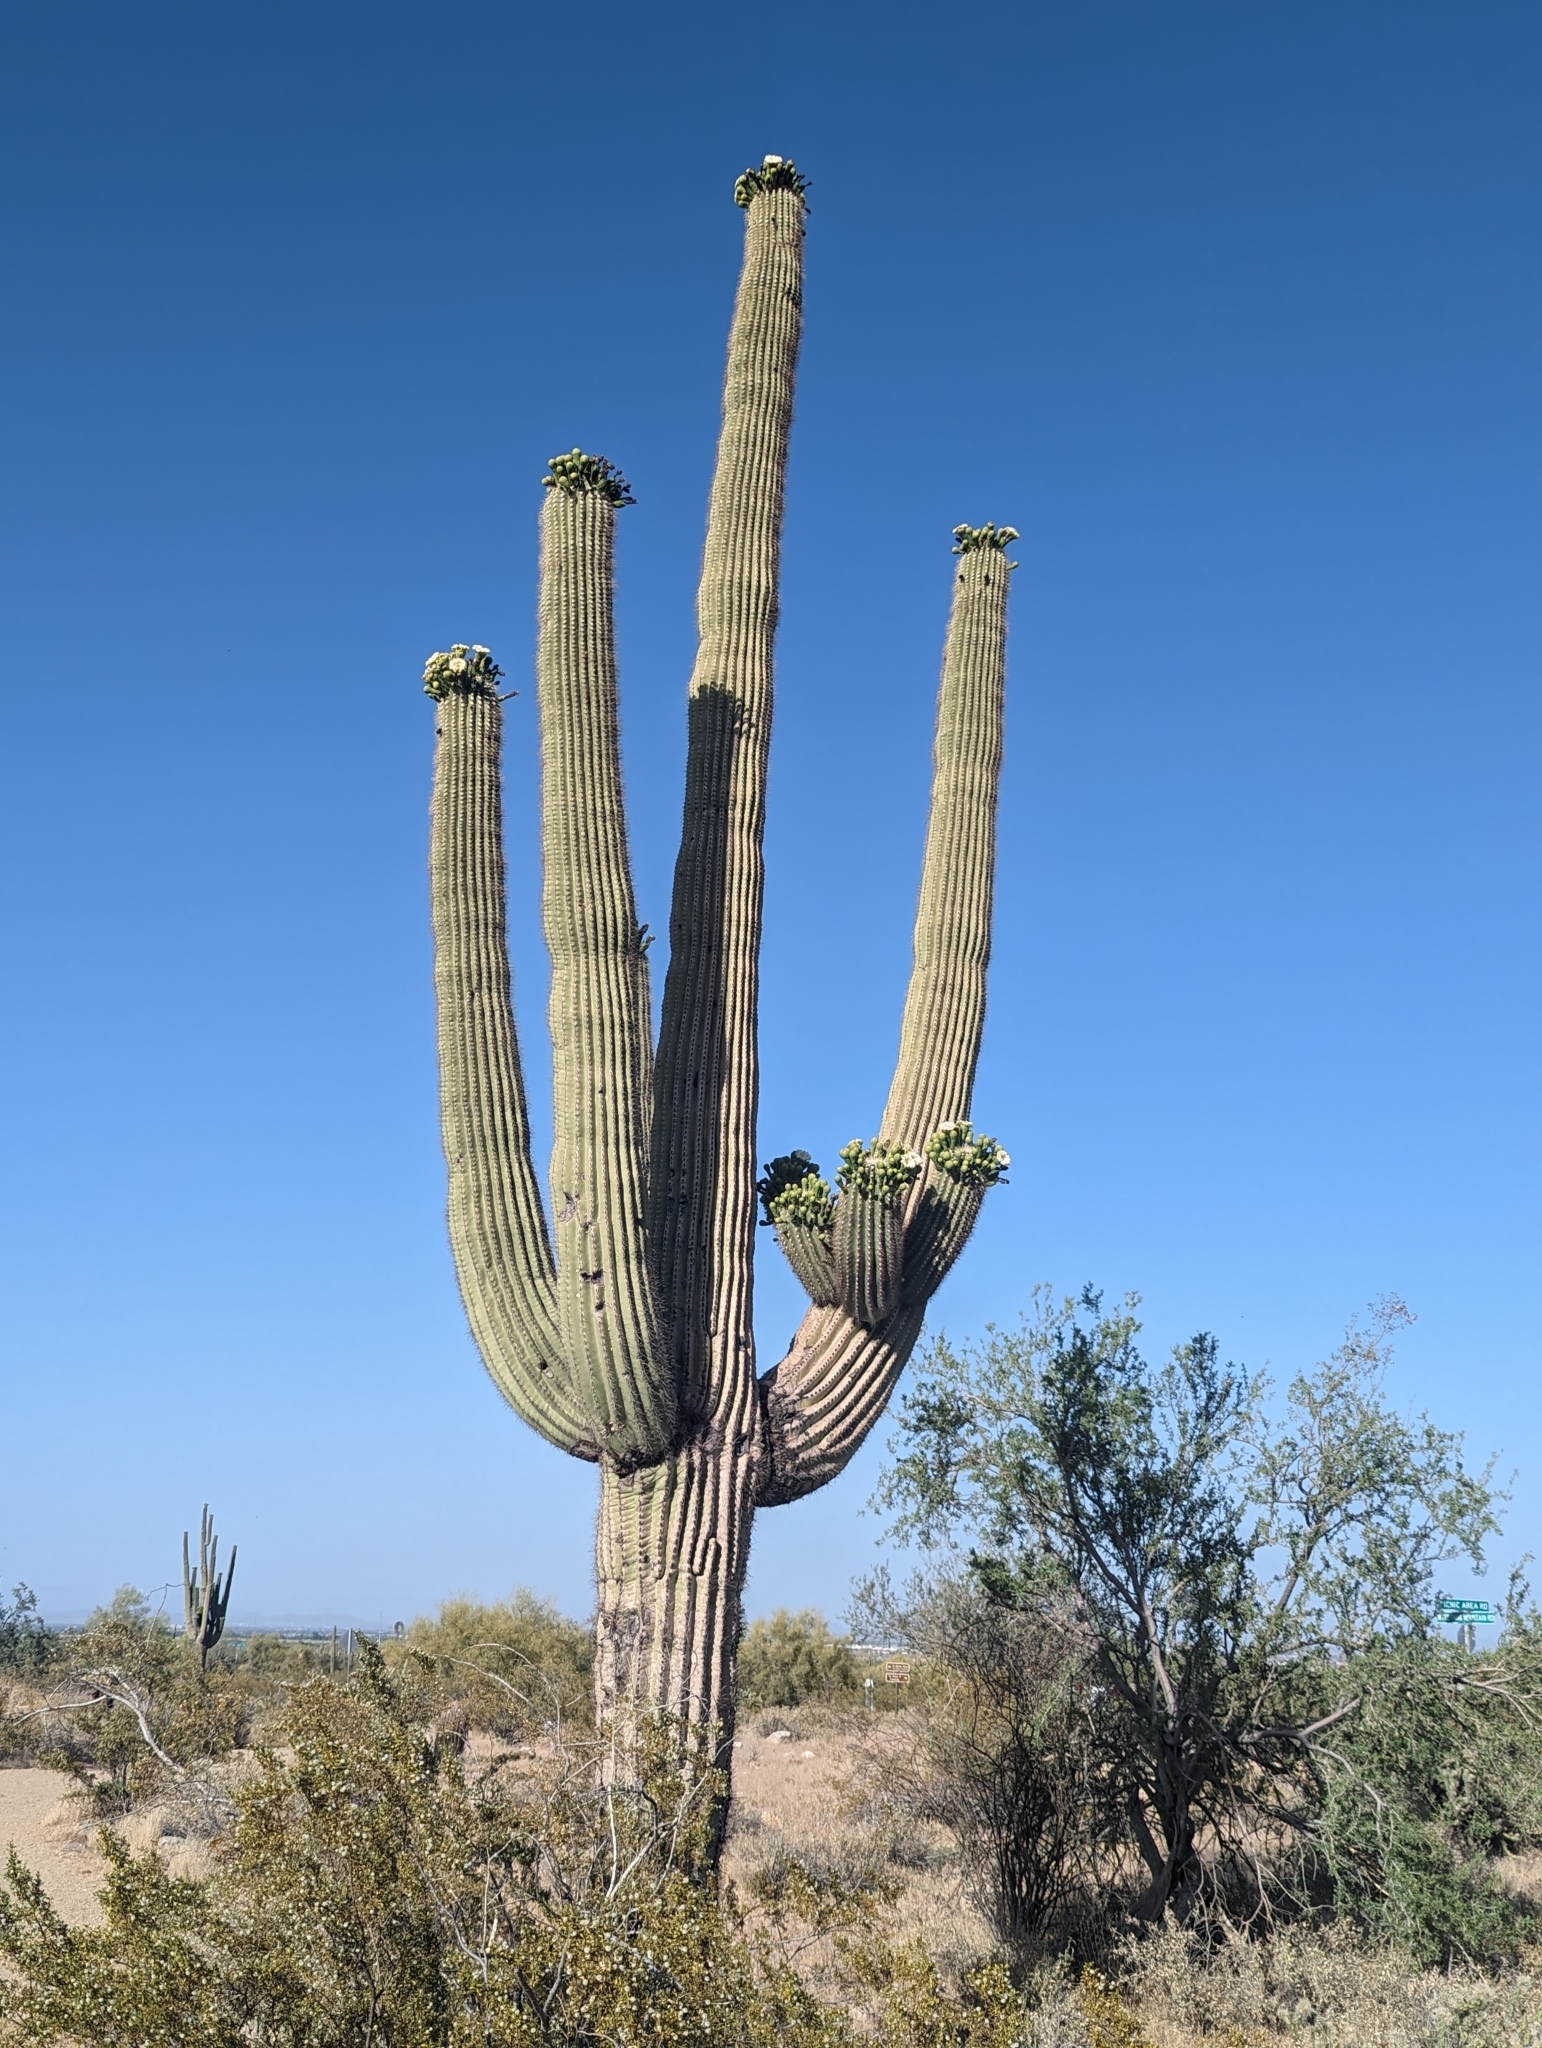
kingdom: Plantae
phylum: Tracheophyta
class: Magnoliopsida
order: Caryophyllales
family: Cactaceae
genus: Carnegiea
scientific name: Carnegiea gigantea
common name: Saguaro
